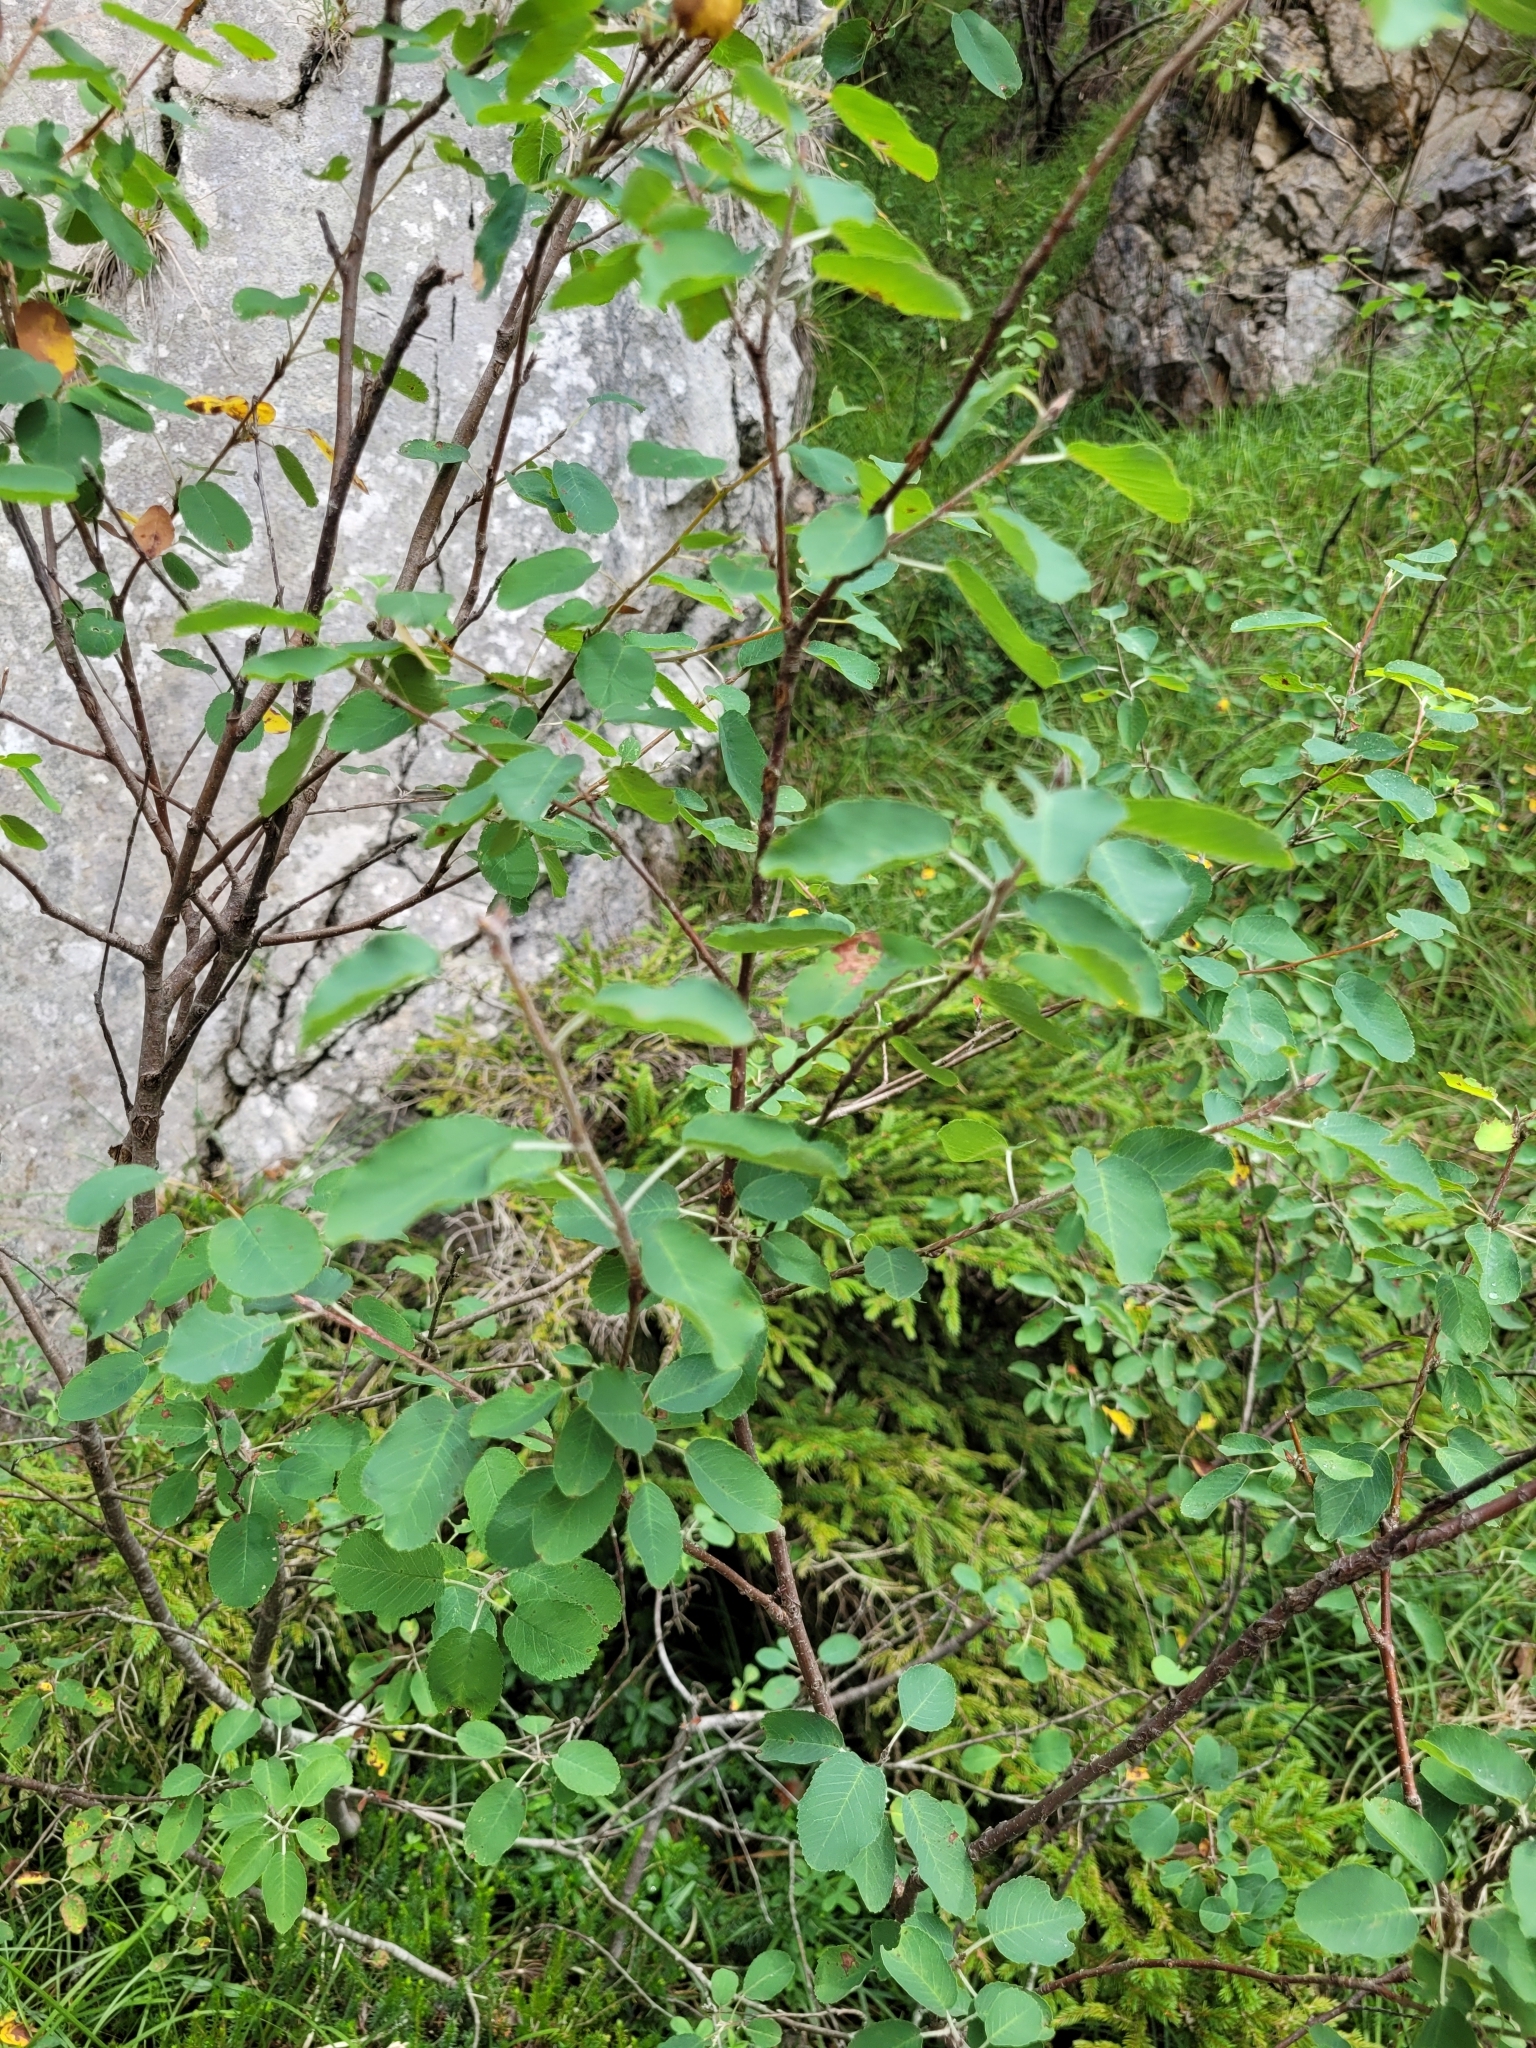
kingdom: Plantae
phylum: Tracheophyta
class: Magnoliopsida
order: Rosales
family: Rosaceae
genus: Amelanchier
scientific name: Amelanchier ovalis
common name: Serviceberry
